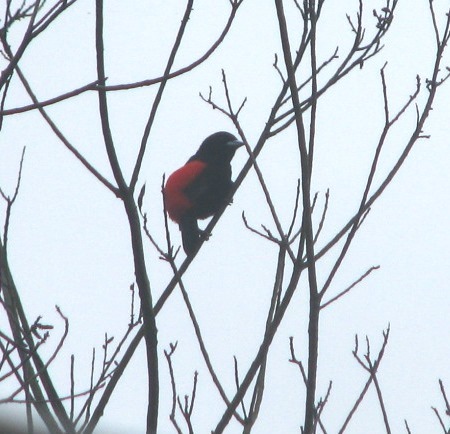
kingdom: Animalia
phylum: Chordata
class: Aves
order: Passeriformes
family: Thraupidae
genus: Ramphocelus
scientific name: Ramphocelus passerinii
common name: Passerini's tanager
